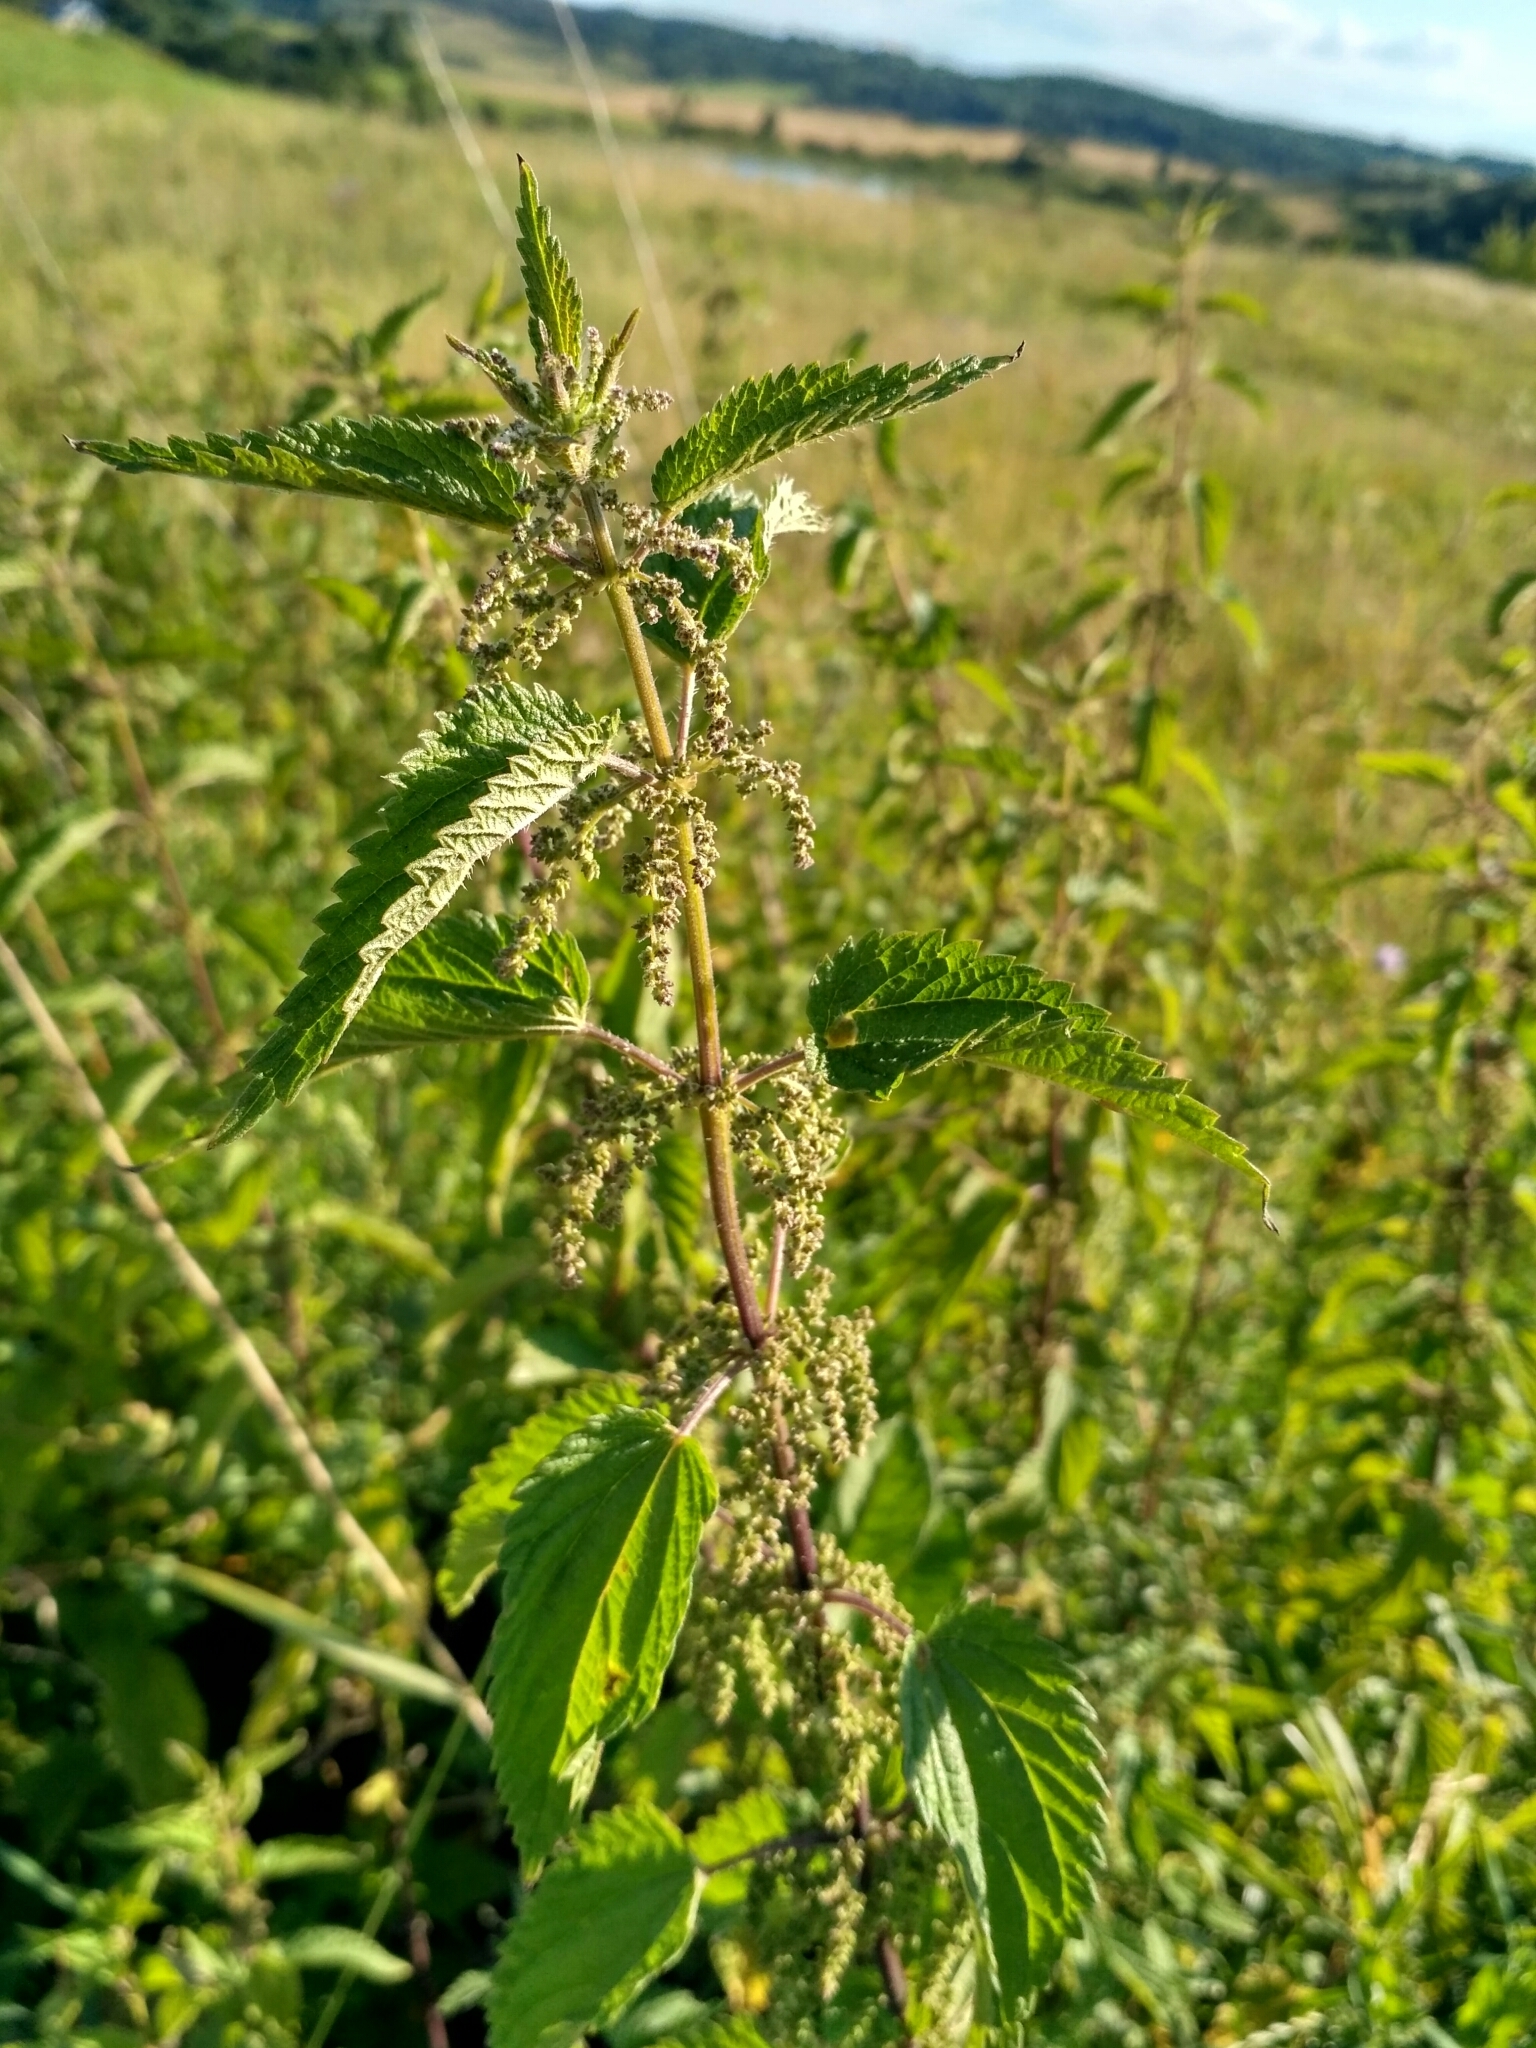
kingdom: Plantae
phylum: Tracheophyta
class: Magnoliopsida
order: Rosales
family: Urticaceae
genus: Urtica
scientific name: Urtica dioica
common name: Common nettle
